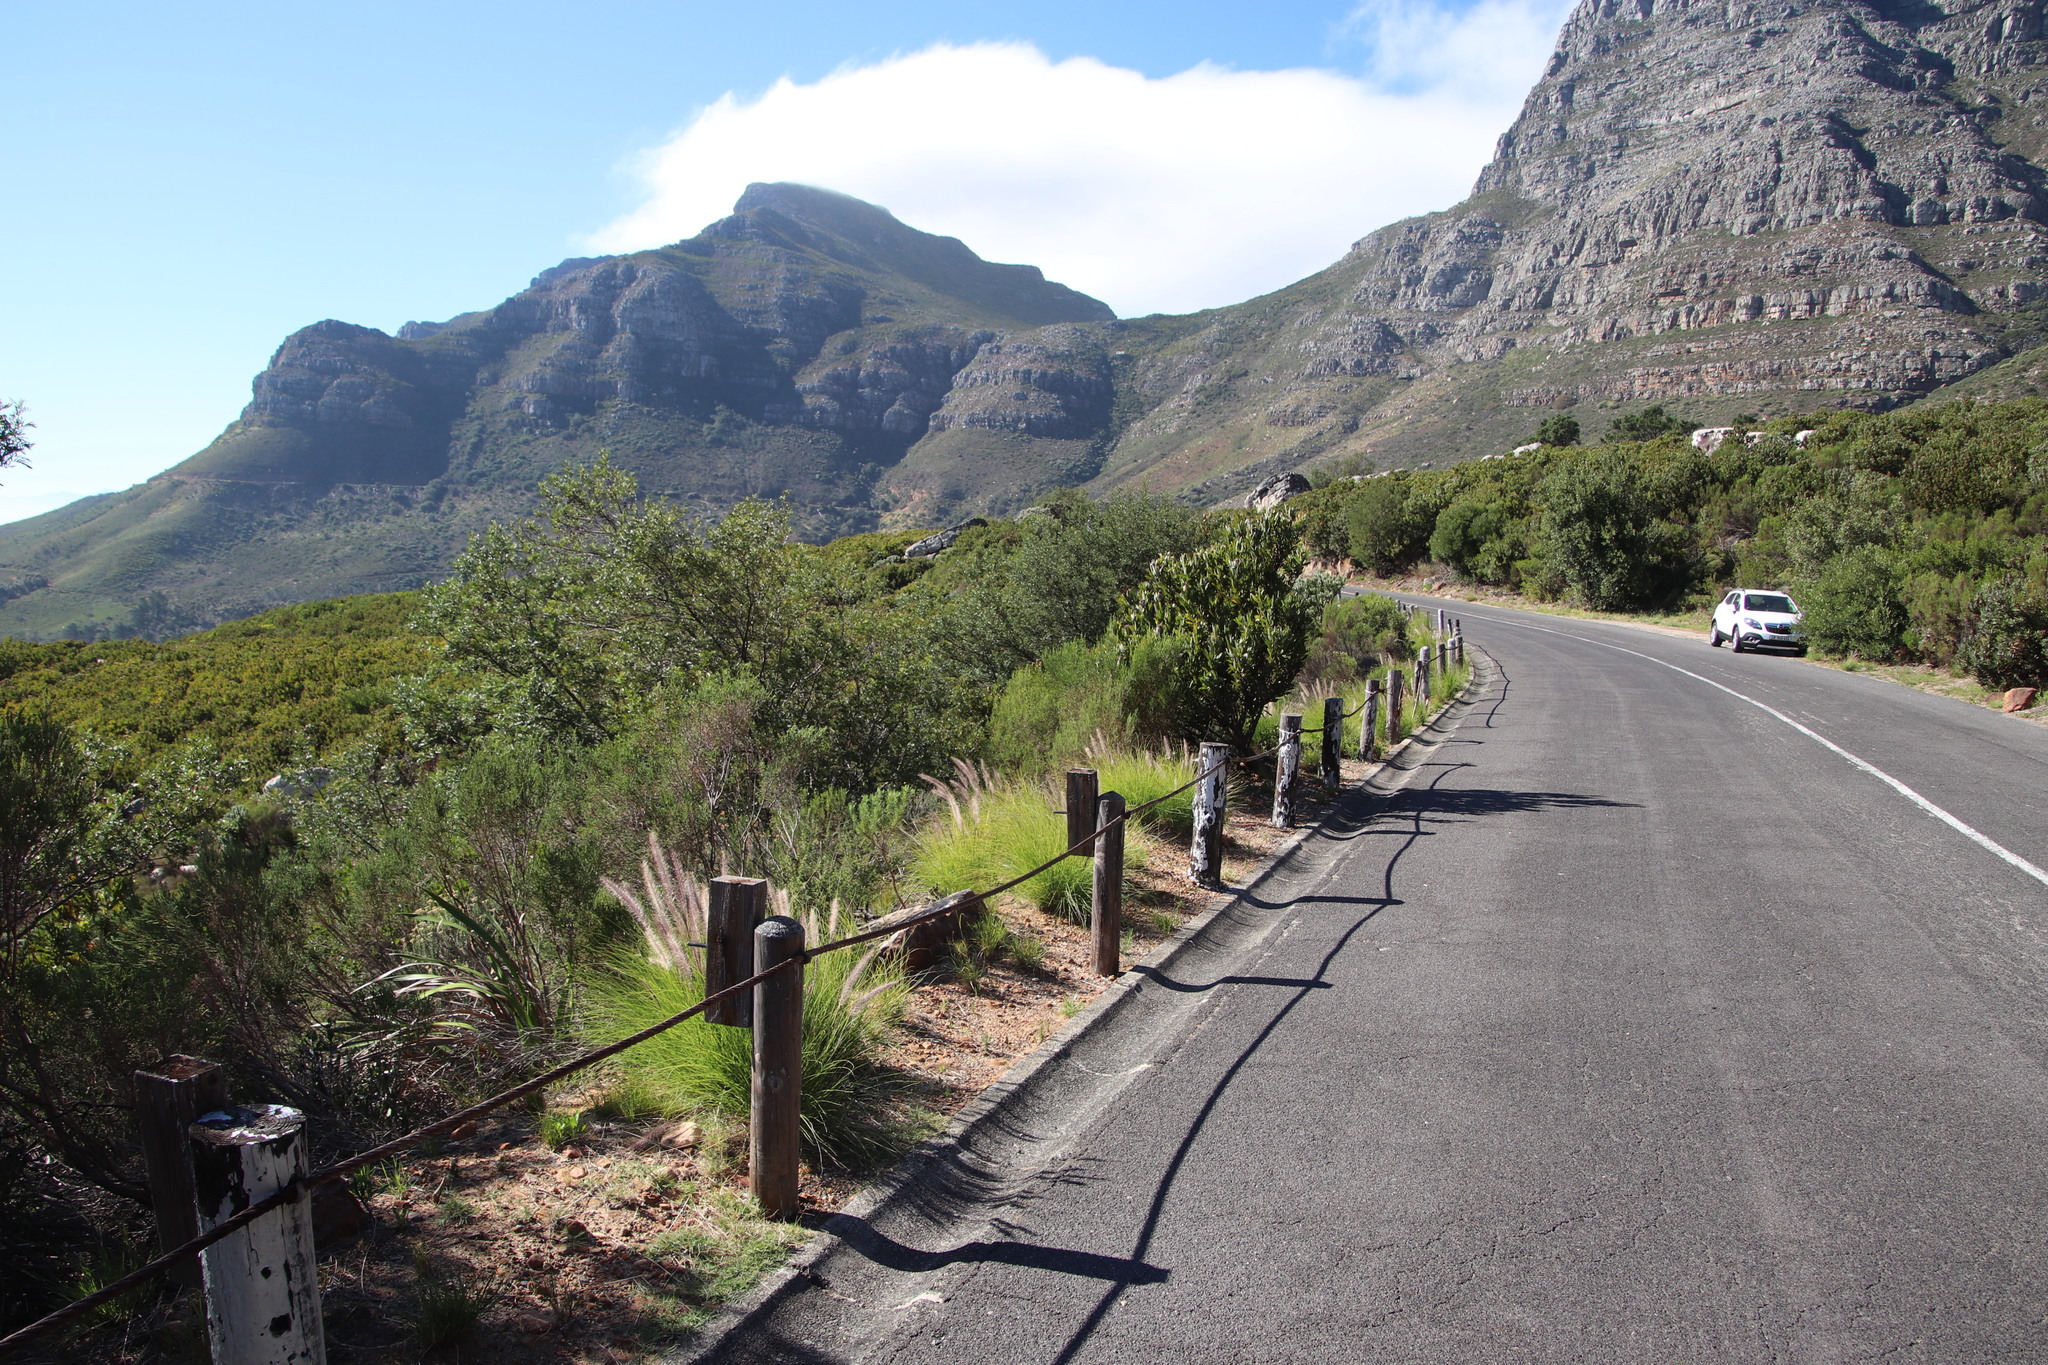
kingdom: Plantae
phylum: Tracheophyta
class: Liliopsida
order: Poales
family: Poaceae
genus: Cenchrus
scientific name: Cenchrus setaceus
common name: Crimson fountaingrass
